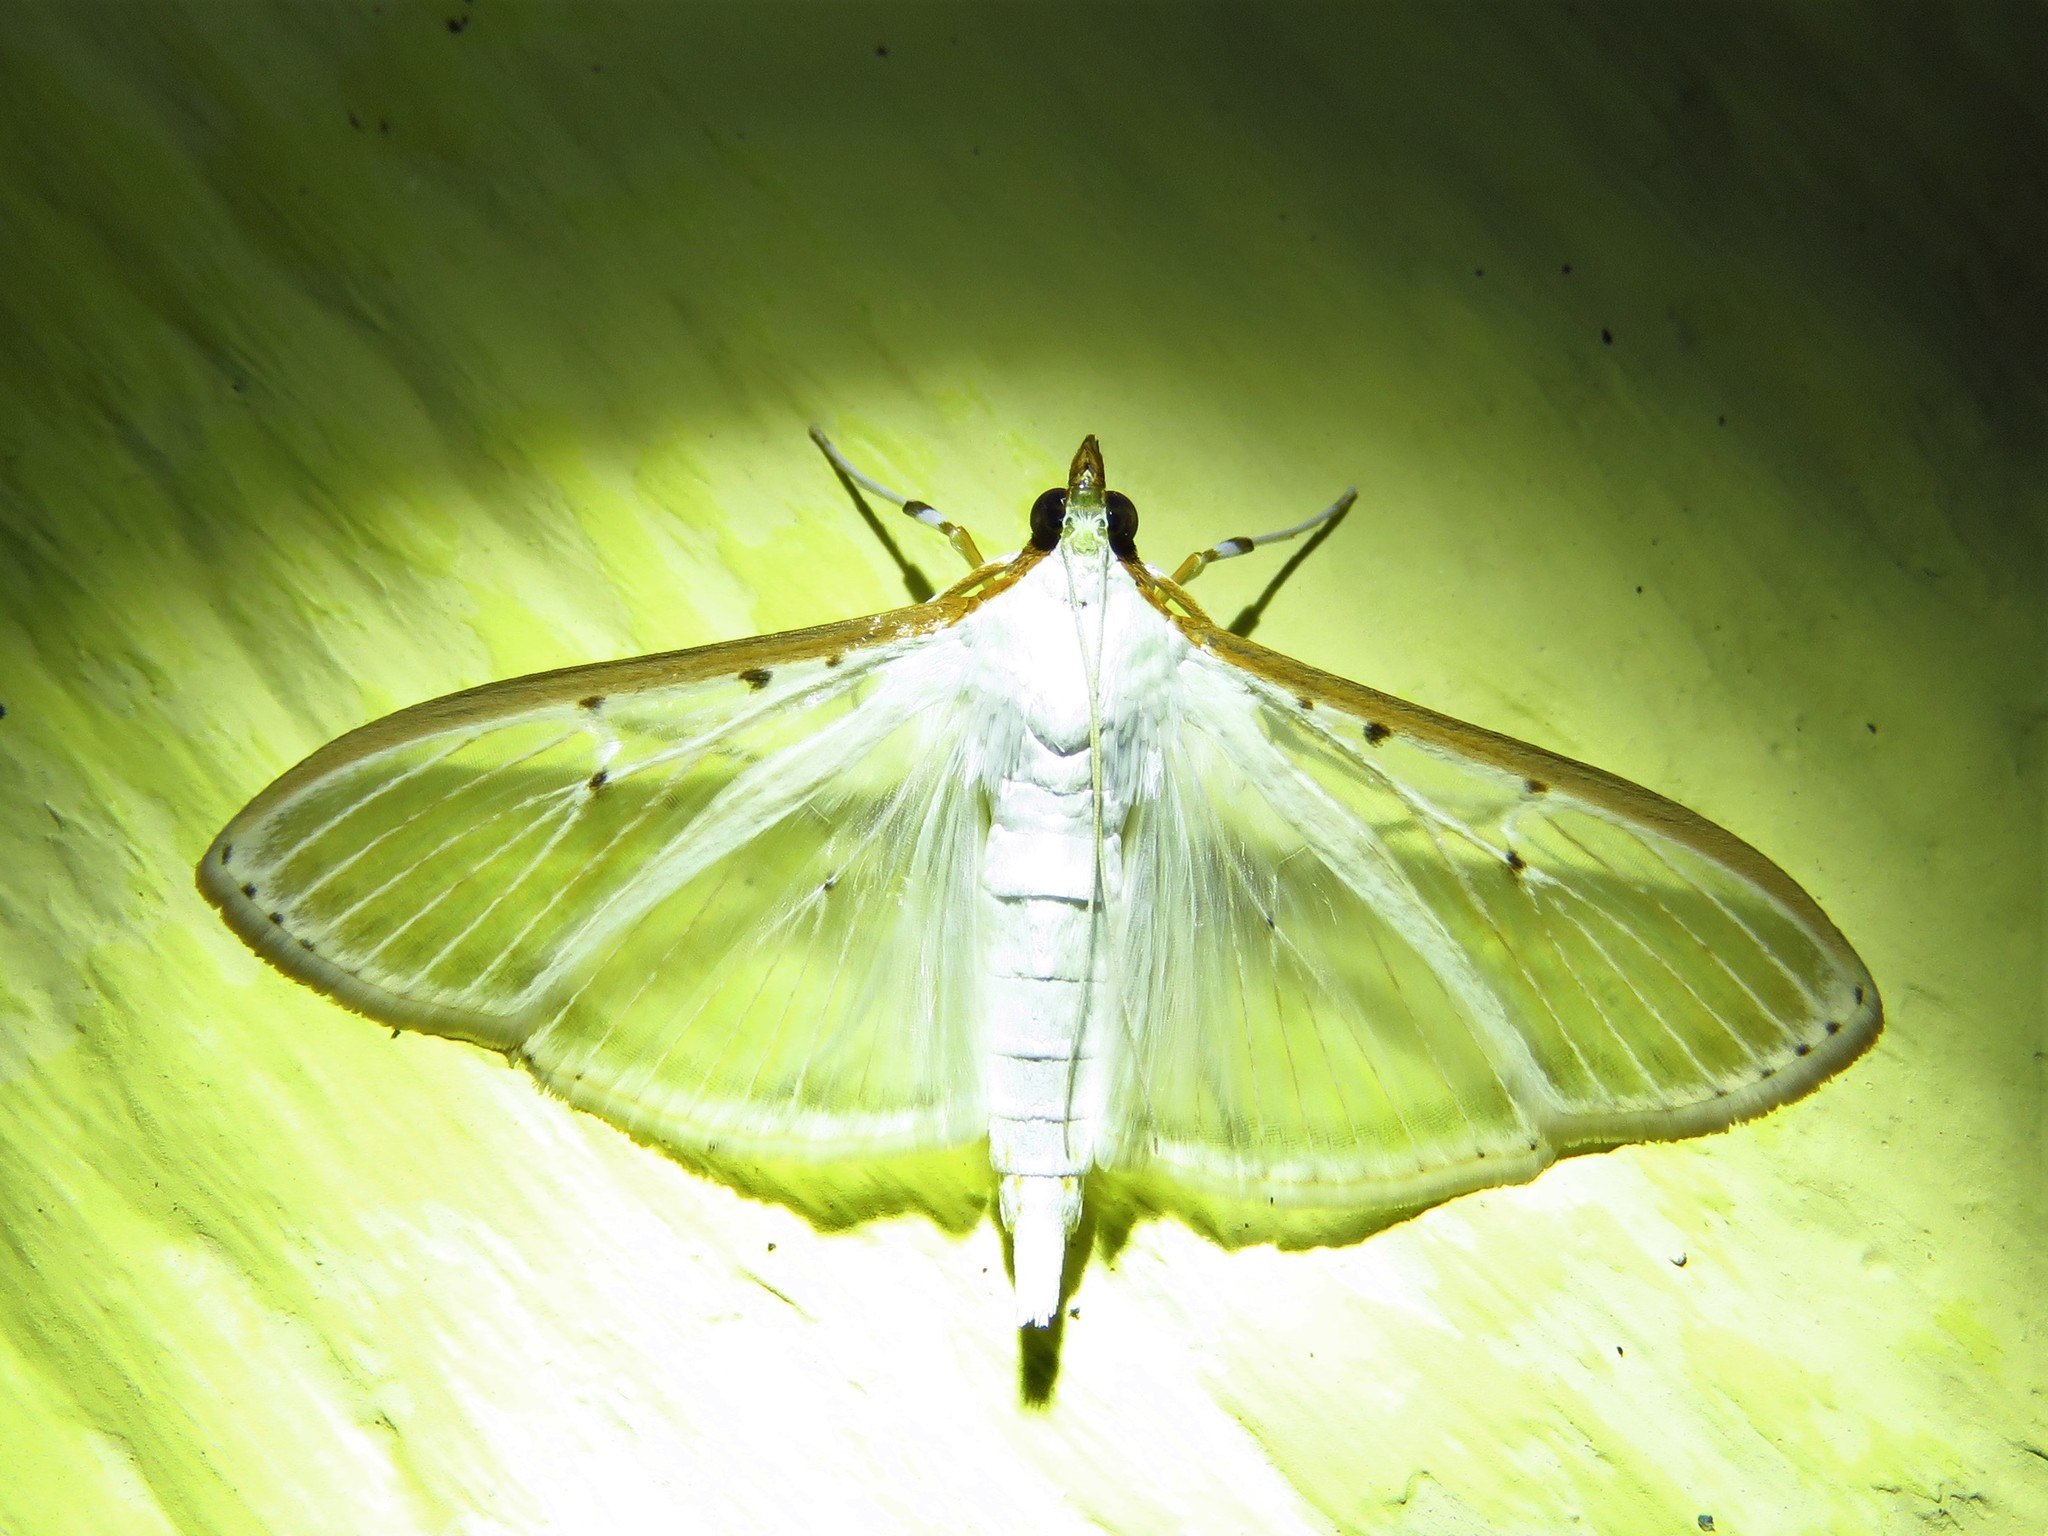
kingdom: Animalia
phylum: Arthropoda
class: Insecta
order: Lepidoptera
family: Crambidae
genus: Palpita
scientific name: Palpita quadristigmalis
